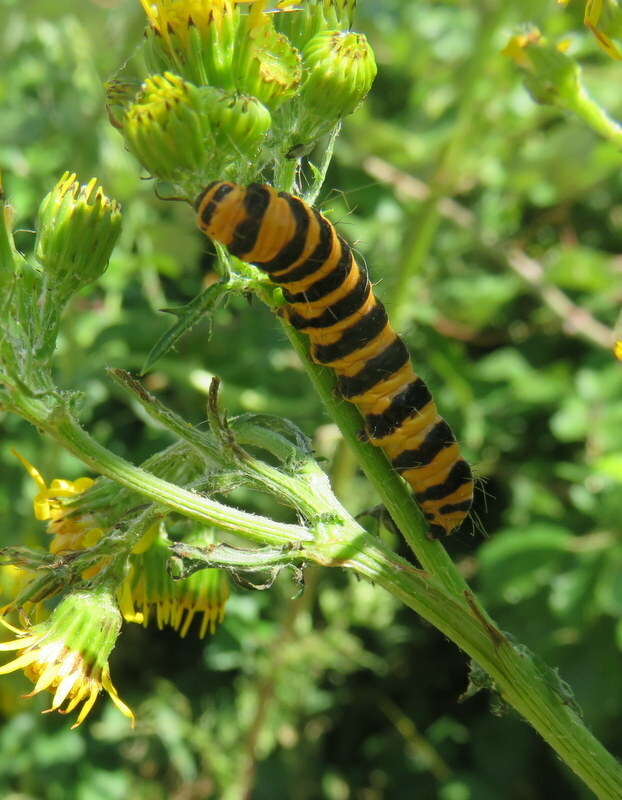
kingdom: Animalia
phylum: Arthropoda
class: Insecta
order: Lepidoptera
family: Erebidae
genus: Tyria
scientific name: Tyria jacobaeae
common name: Cinnabar
